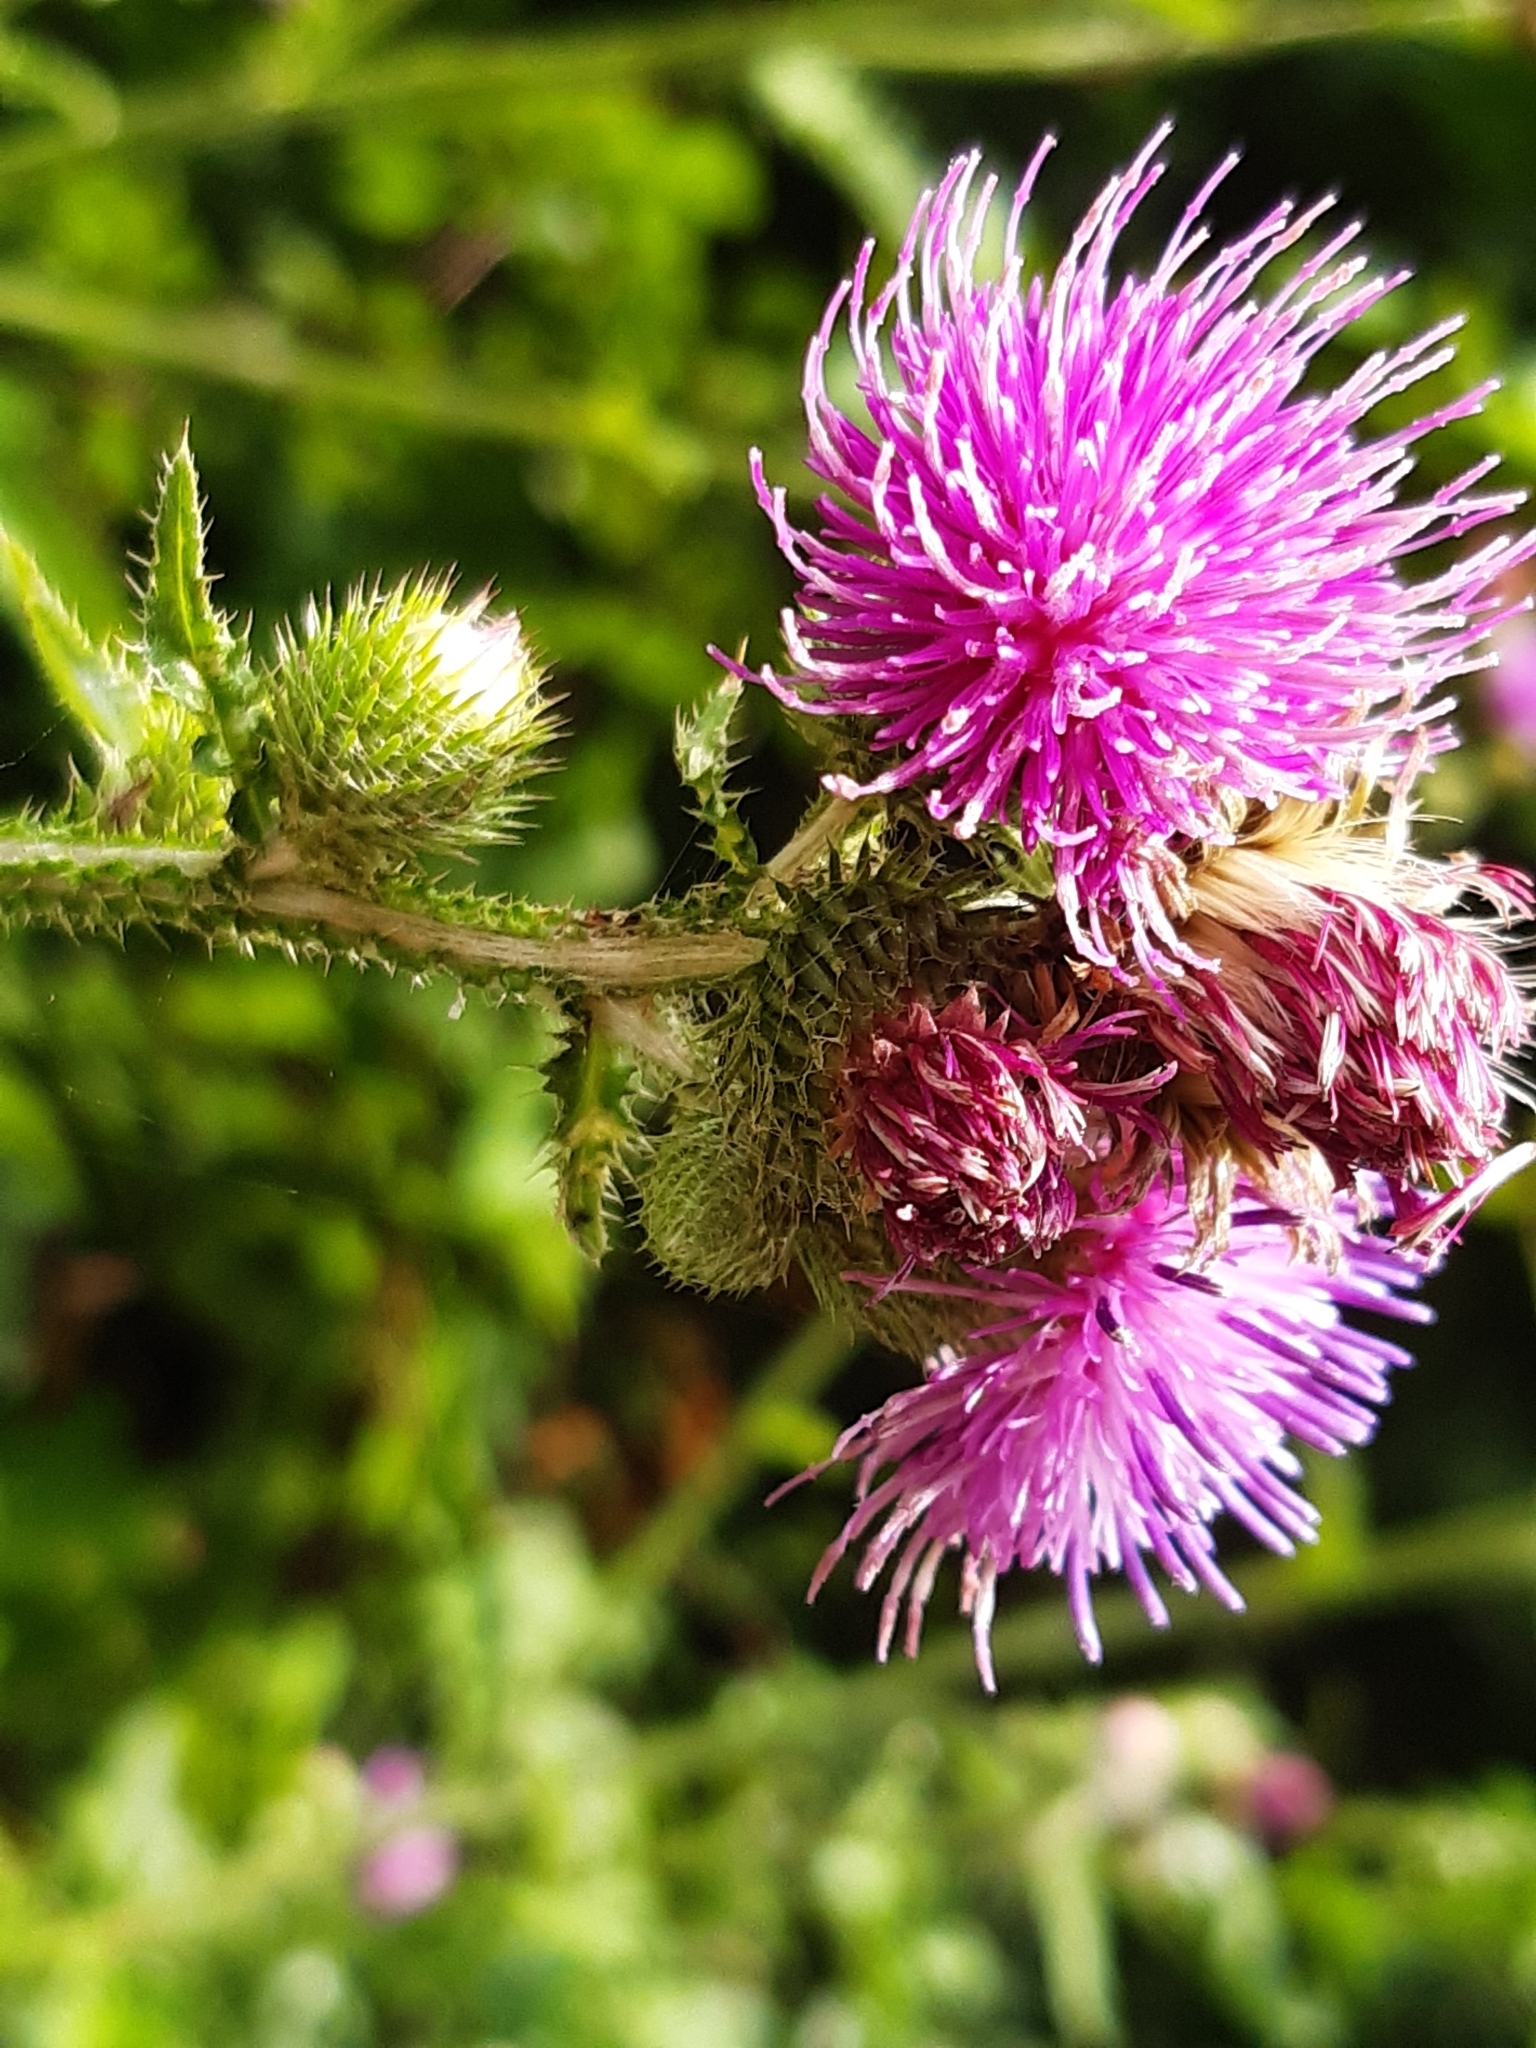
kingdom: Plantae
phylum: Tracheophyta
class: Magnoliopsida
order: Asterales
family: Asteraceae
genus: Carduus
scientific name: Carduus crispus
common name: Welted thistle
